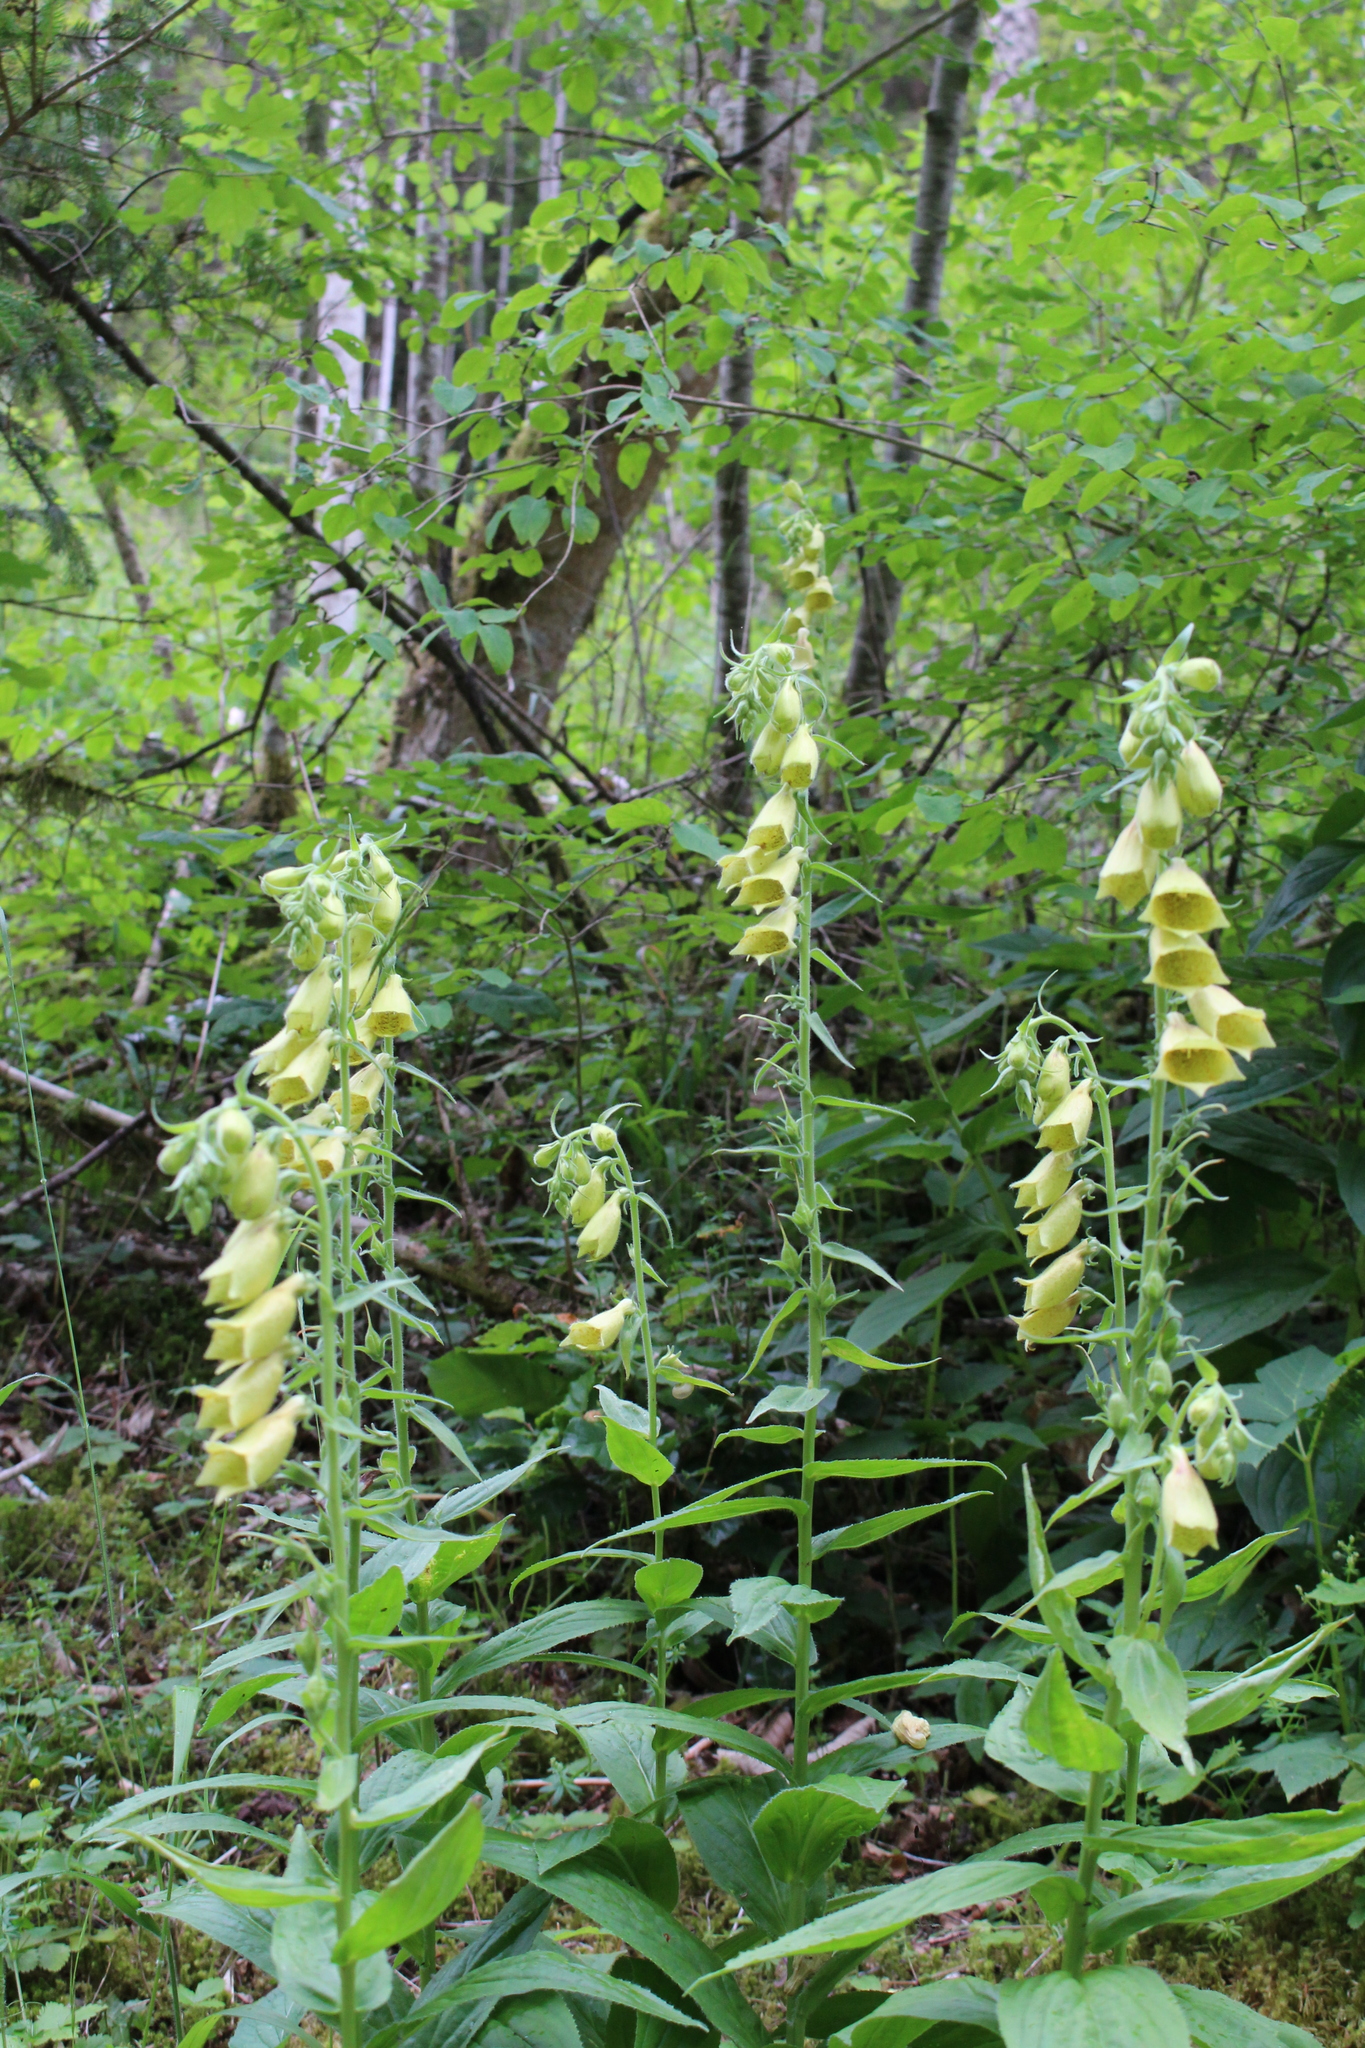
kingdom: Plantae
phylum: Tracheophyta
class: Magnoliopsida
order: Lamiales
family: Plantaginaceae
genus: Digitalis
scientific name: Digitalis grandiflora
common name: Yellow foxglove
